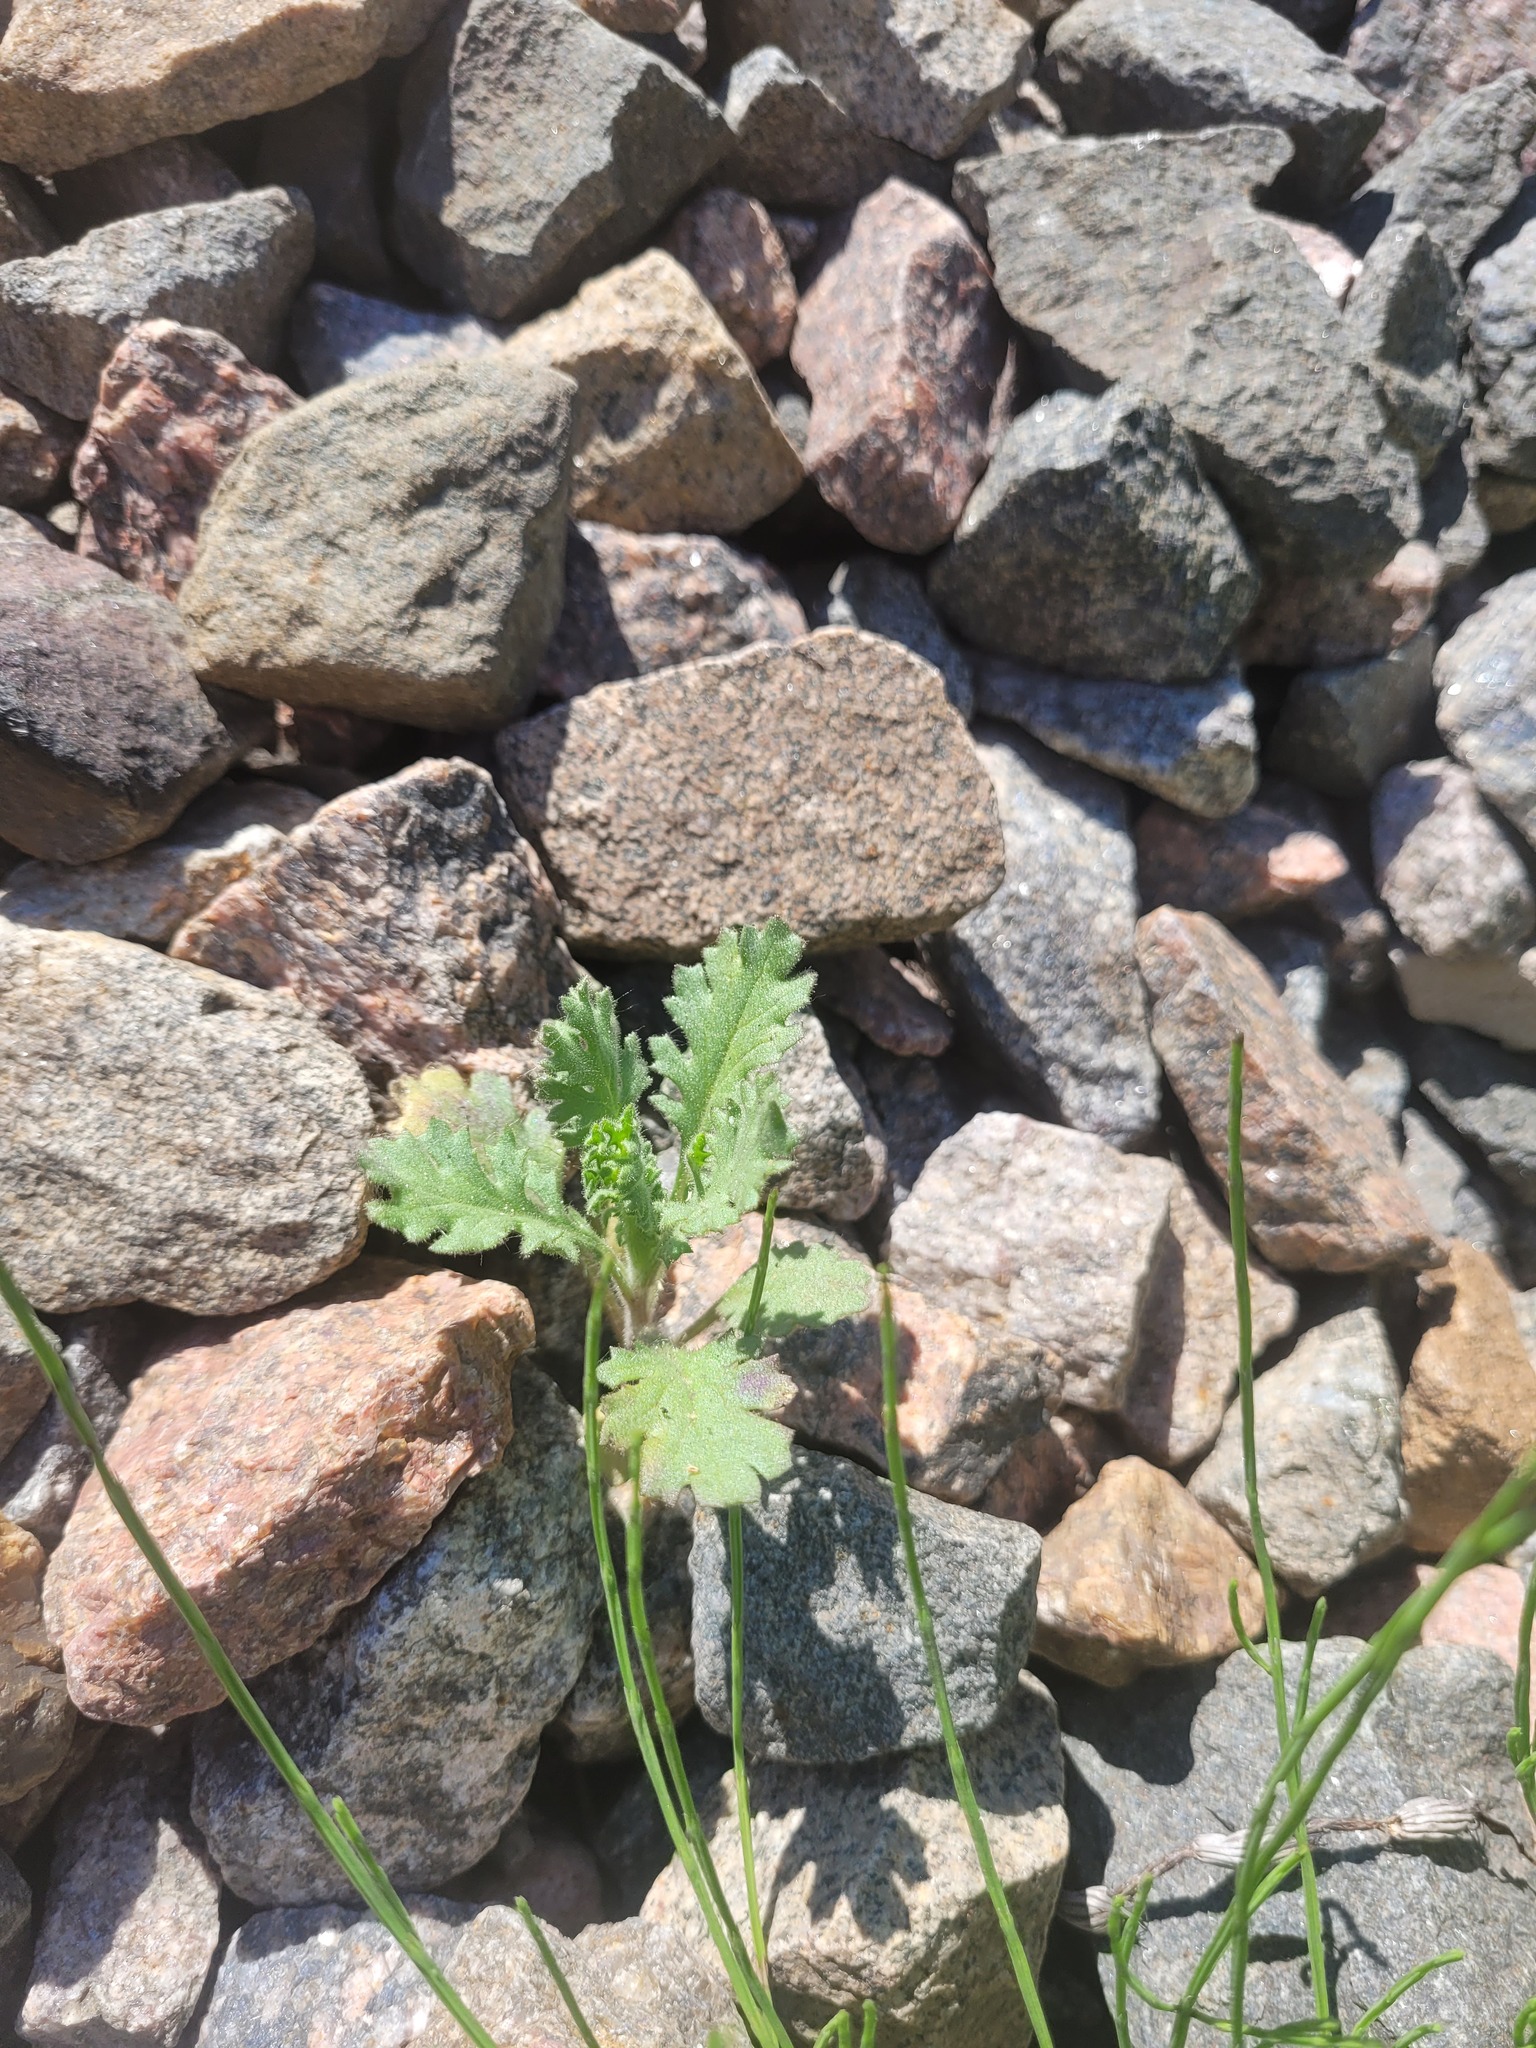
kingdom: Plantae
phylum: Tracheophyta
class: Magnoliopsida
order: Asterales
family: Asteraceae
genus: Senecio
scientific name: Senecio viscosus
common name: Sticky groundsel
